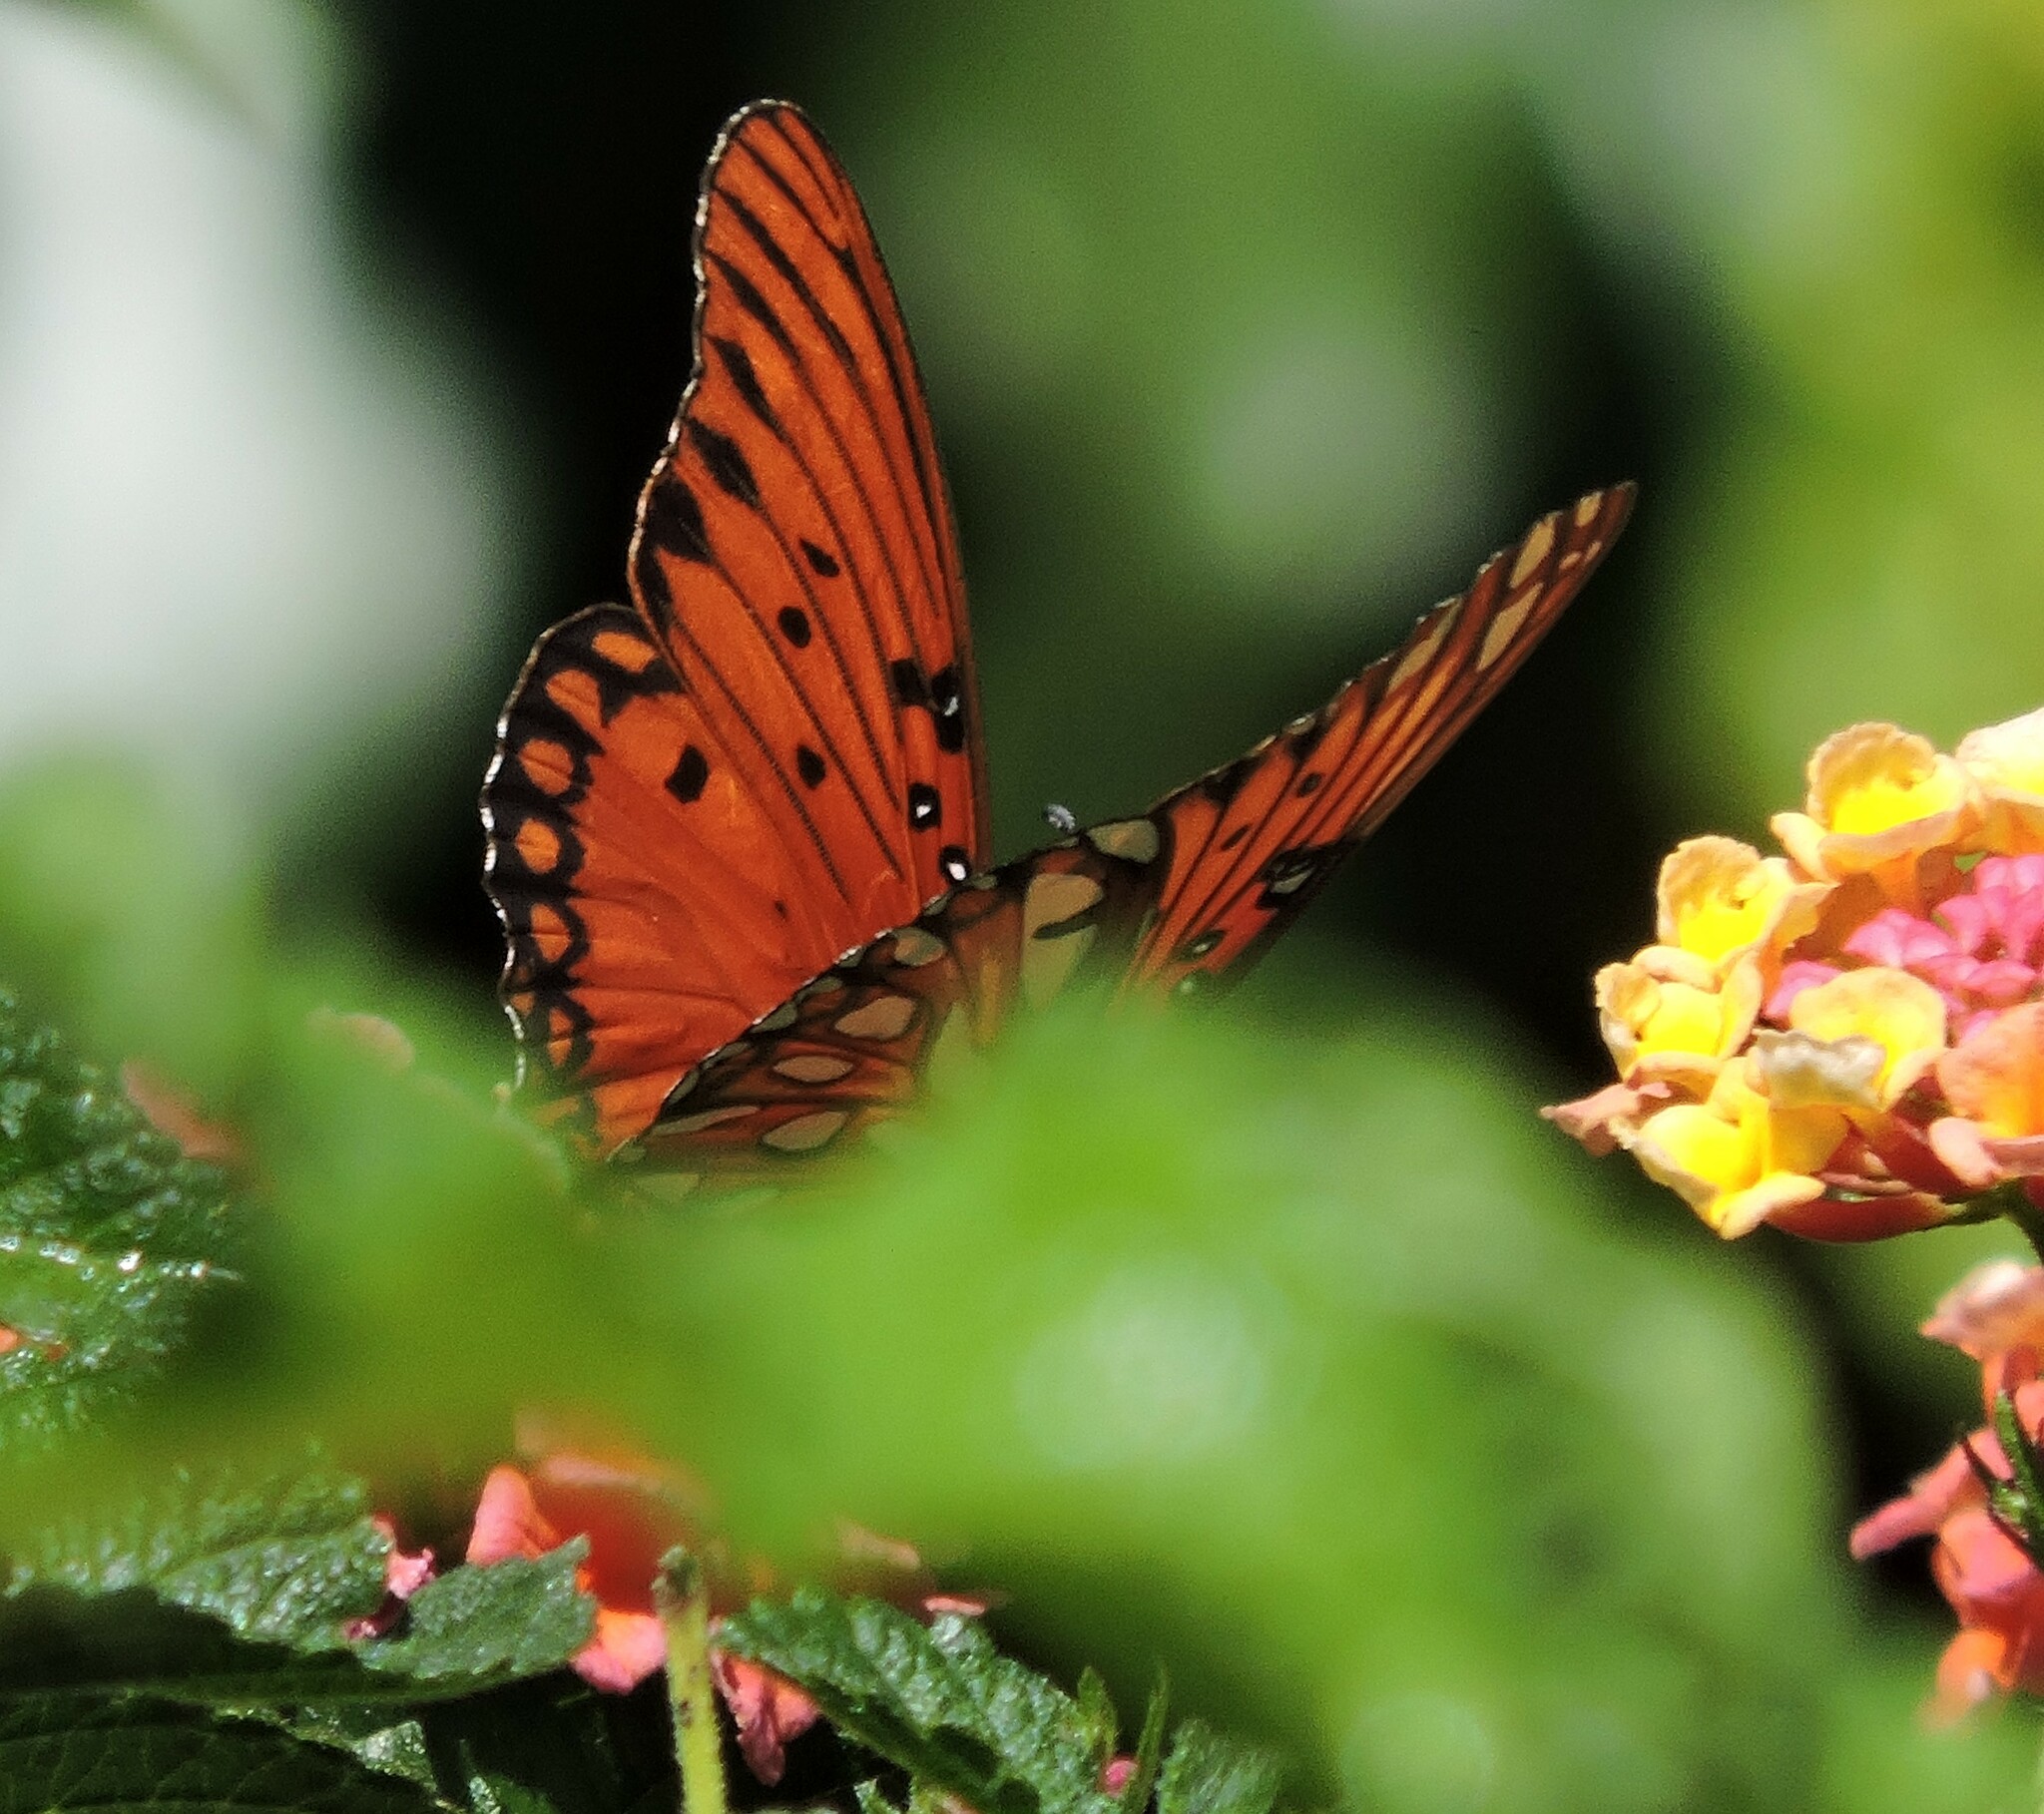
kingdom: Animalia
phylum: Arthropoda
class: Insecta
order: Lepidoptera
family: Nymphalidae
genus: Dione
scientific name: Dione vanillae
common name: Gulf fritillary
